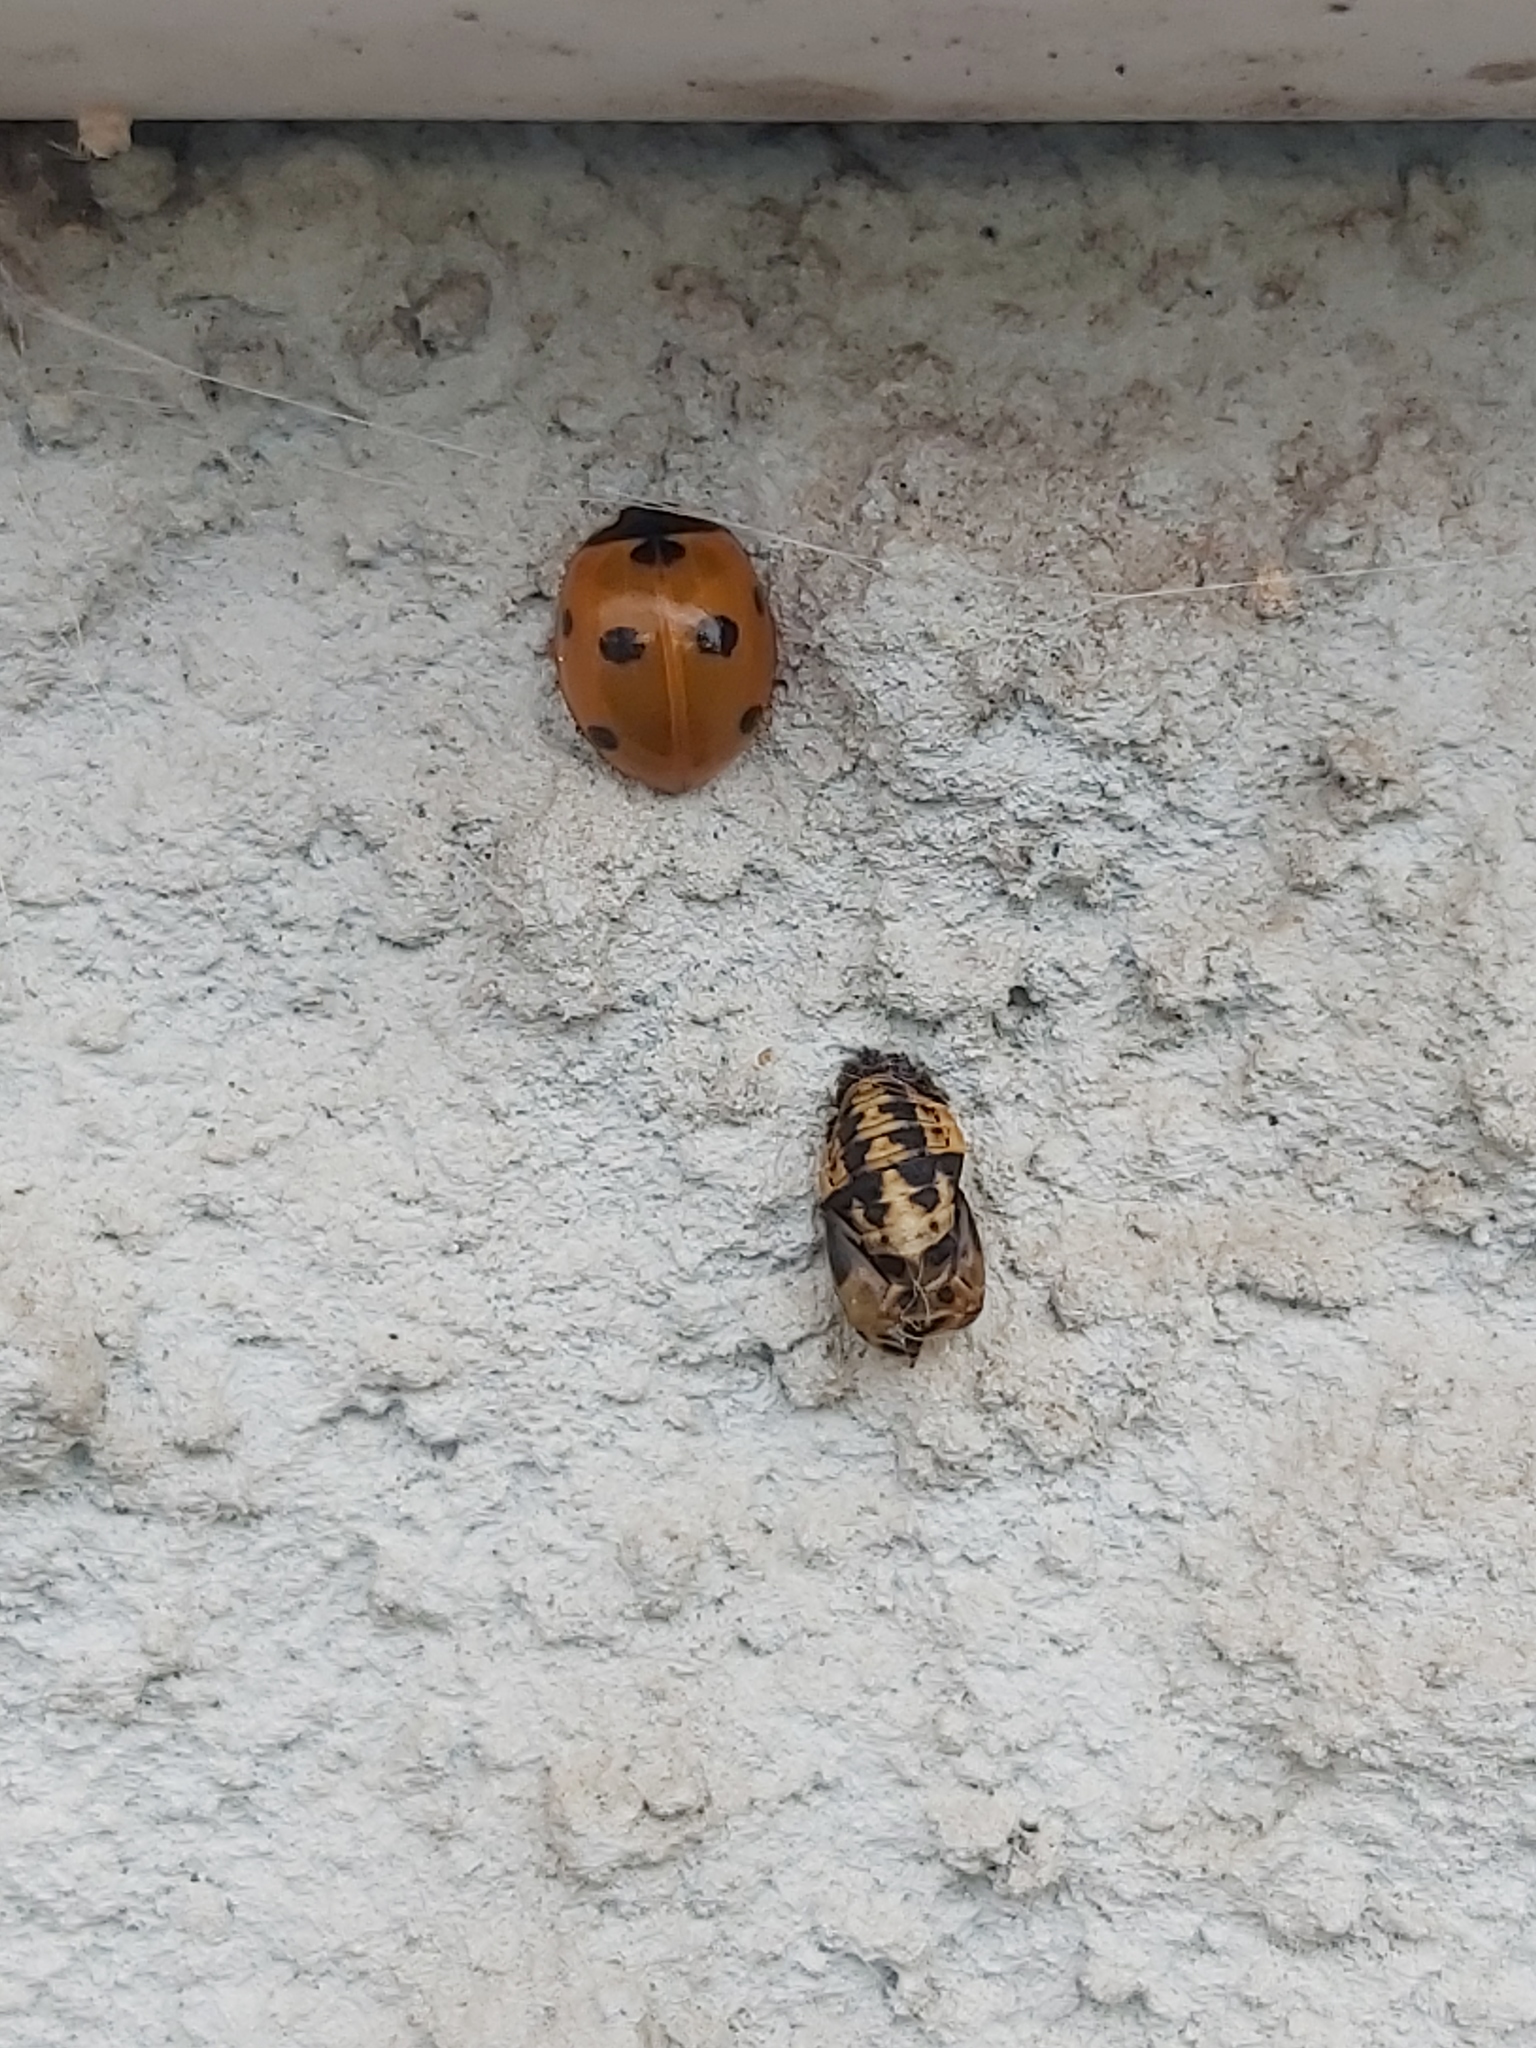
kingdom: Animalia
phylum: Arthropoda
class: Insecta
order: Coleoptera
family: Coccinellidae
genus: Coccinella
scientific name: Coccinella septempunctata
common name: Sevenspotted lady beetle
